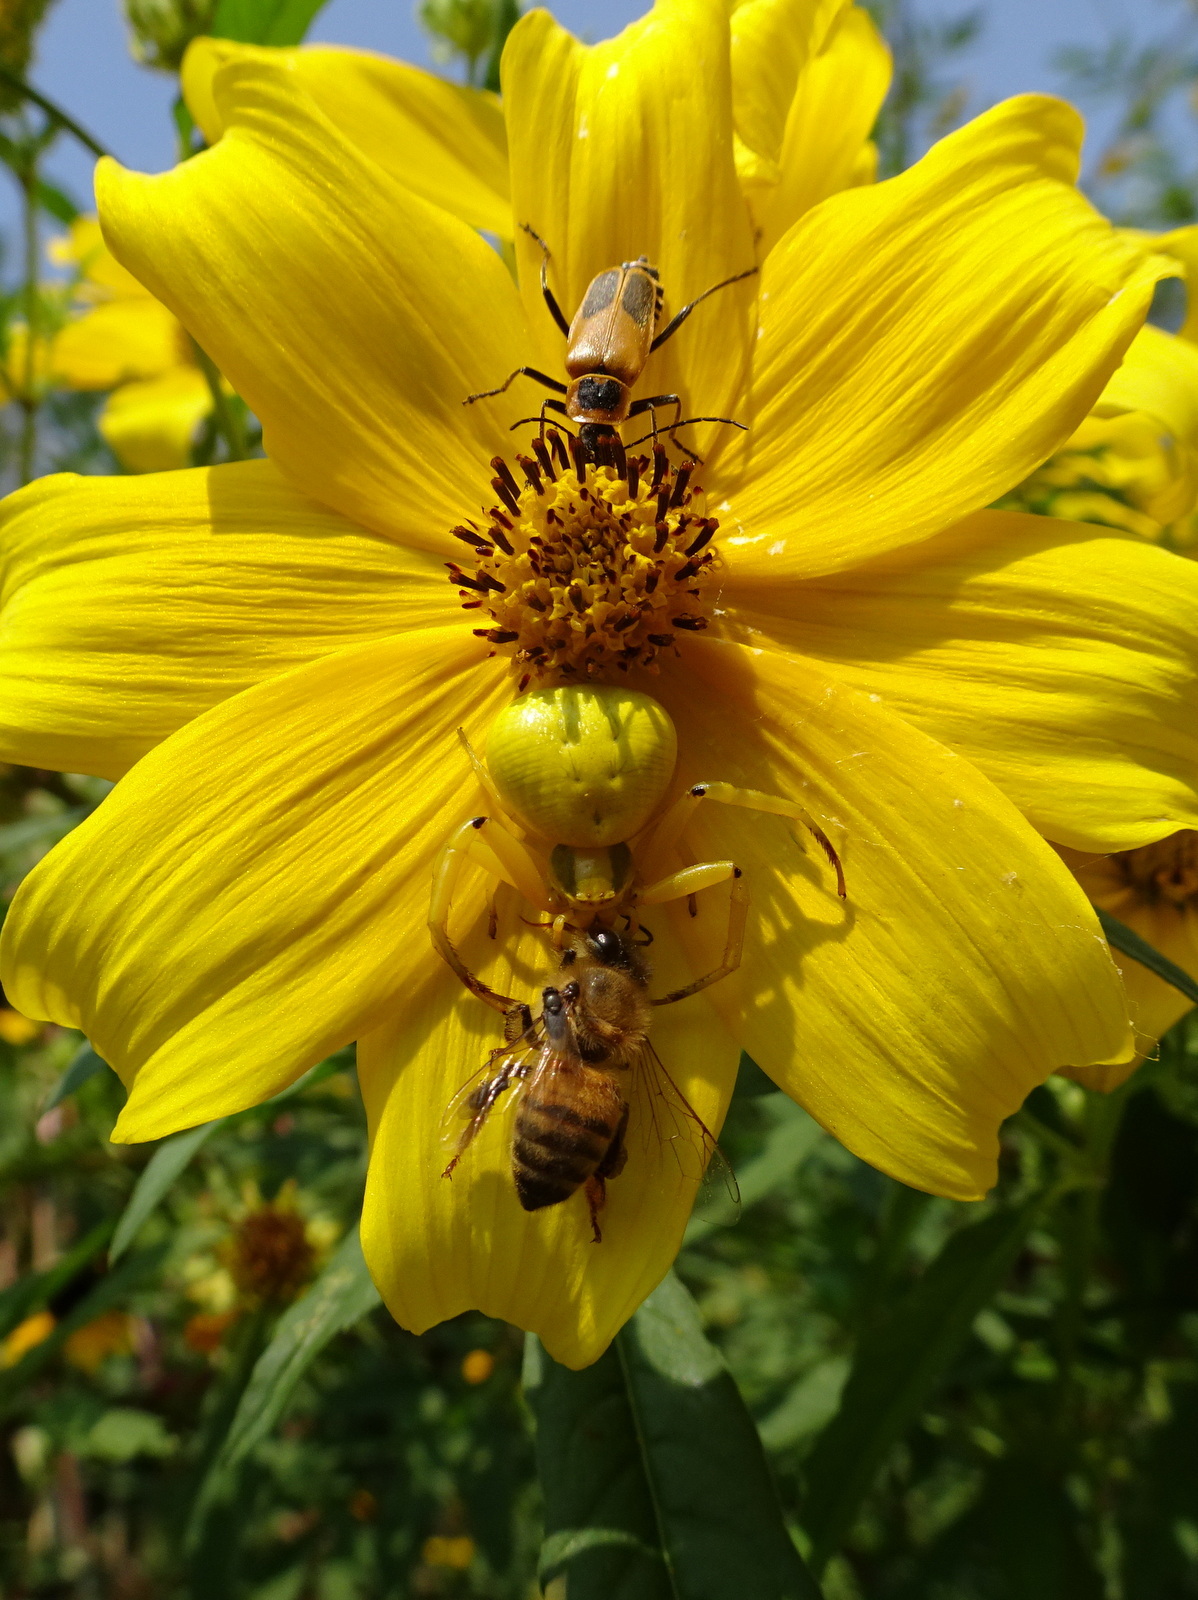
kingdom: Animalia
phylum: Arthropoda
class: Arachnida
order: Araneae
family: Thomisidae
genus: Misumenoides
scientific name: Misumenoides formosipes
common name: White-banded crab spider
